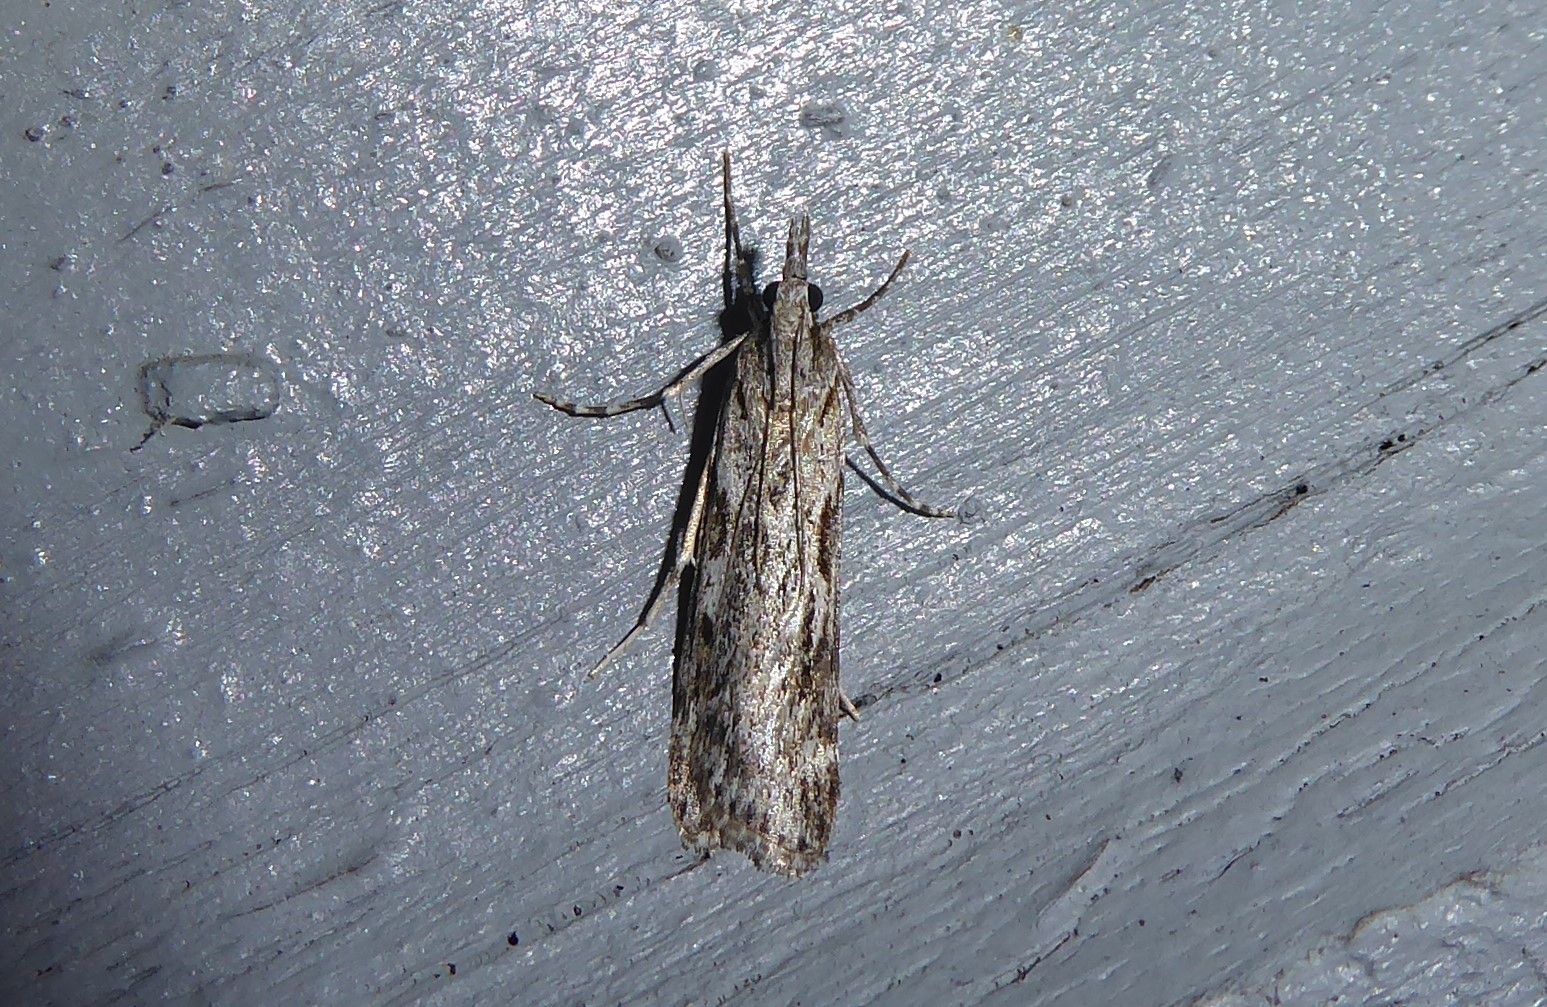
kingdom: Animalia
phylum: Arthropoda
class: Insecta
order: Lepidoptera
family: Crambidae
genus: Scoparia
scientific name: Scoparia halopis
